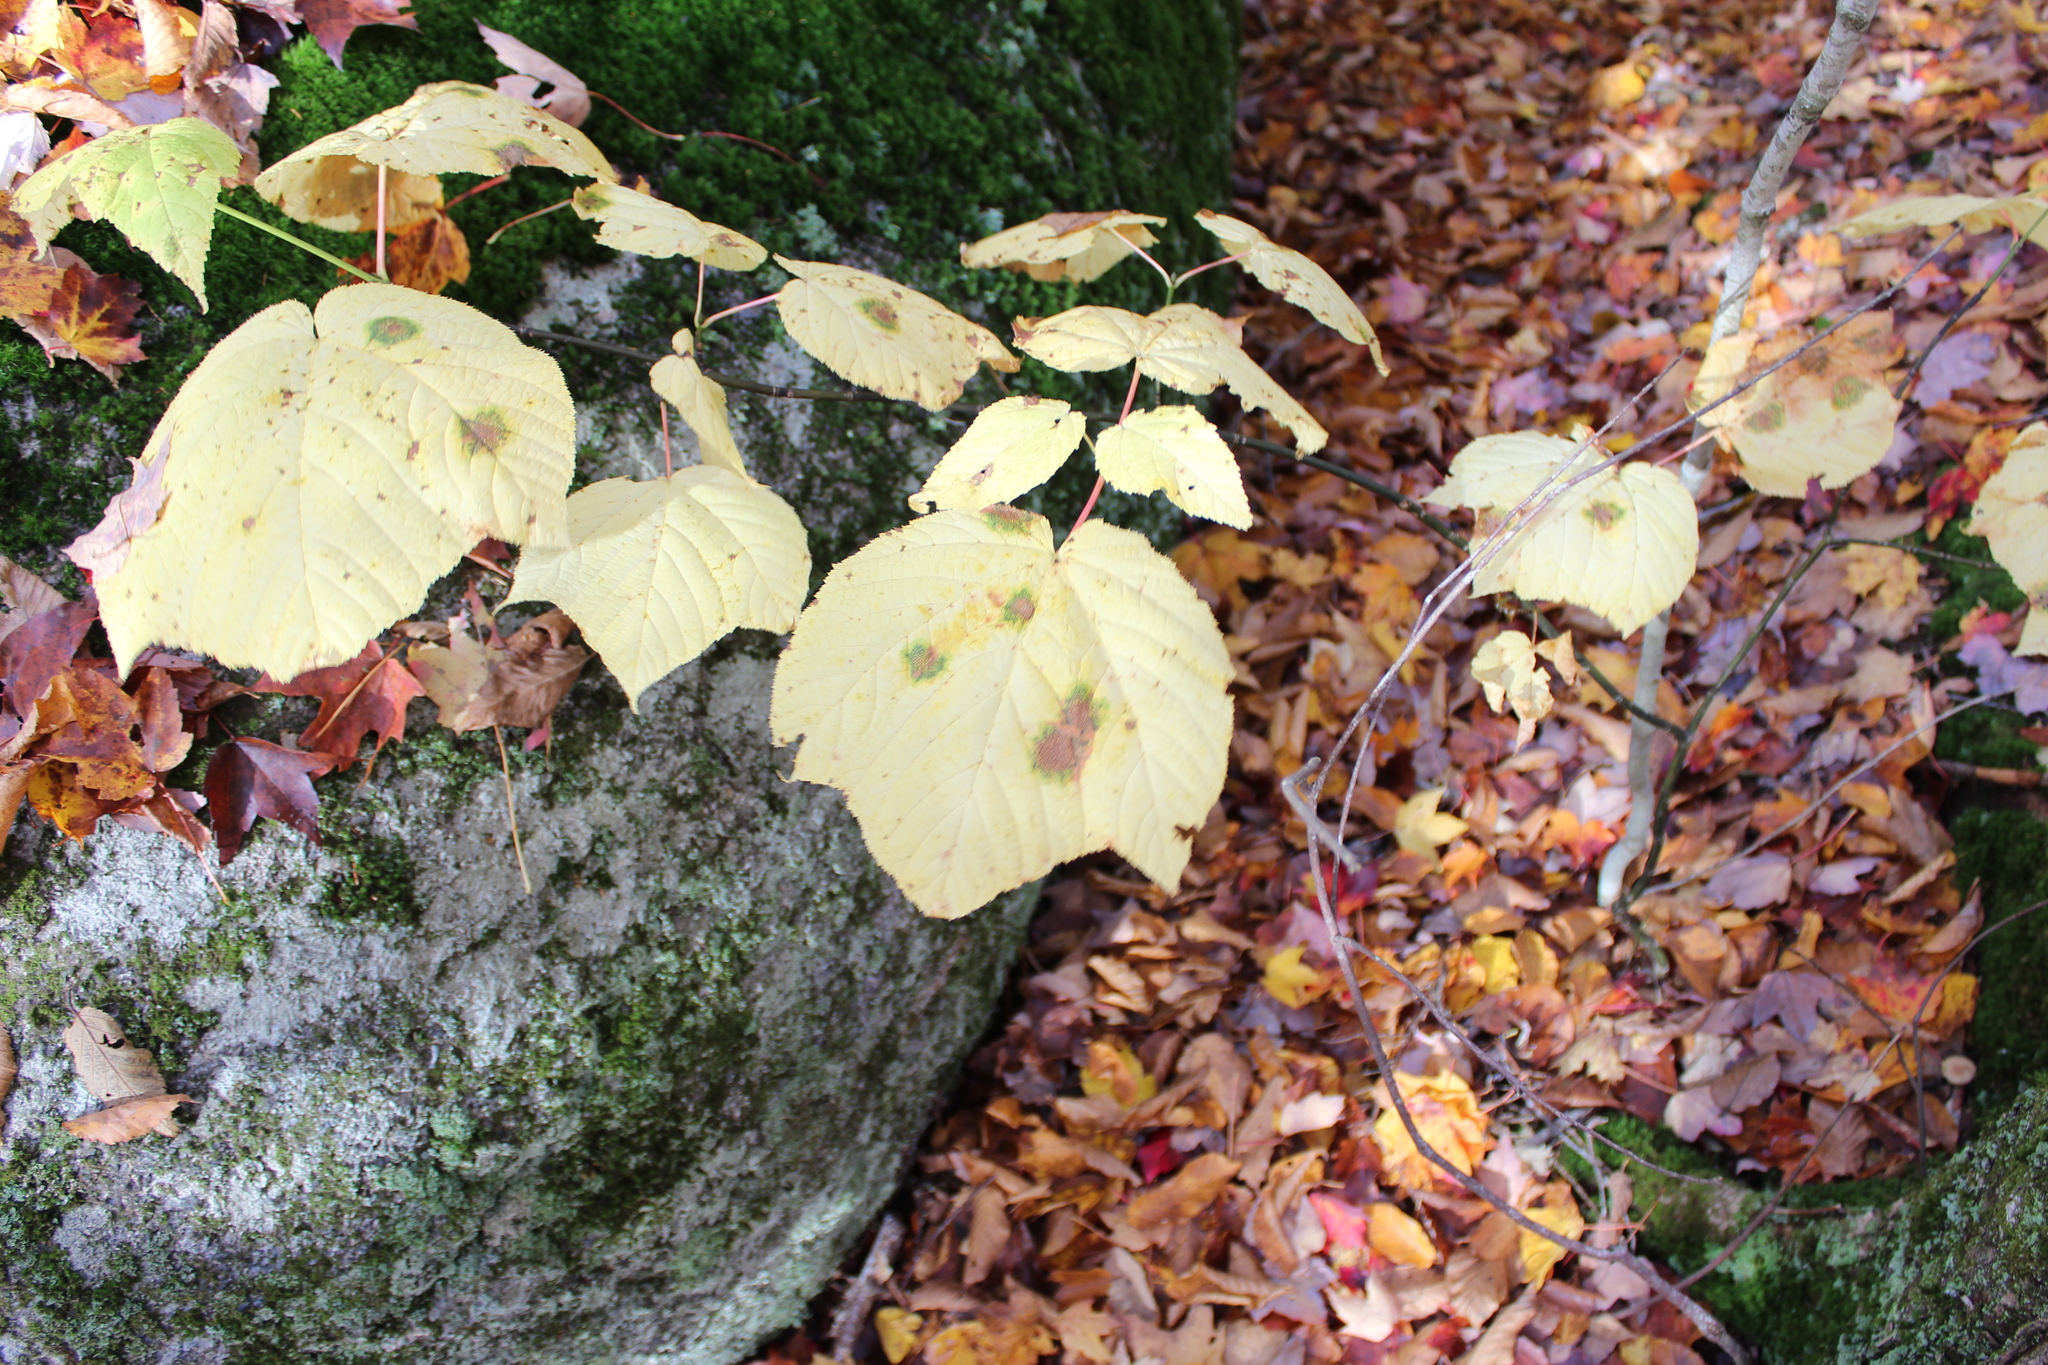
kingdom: Plantae
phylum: Tracheophyta
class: Magnoliopsida
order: Sapindales
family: Sapindaceae
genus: Acer
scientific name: Acer pensylvanicum
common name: Moosewood
